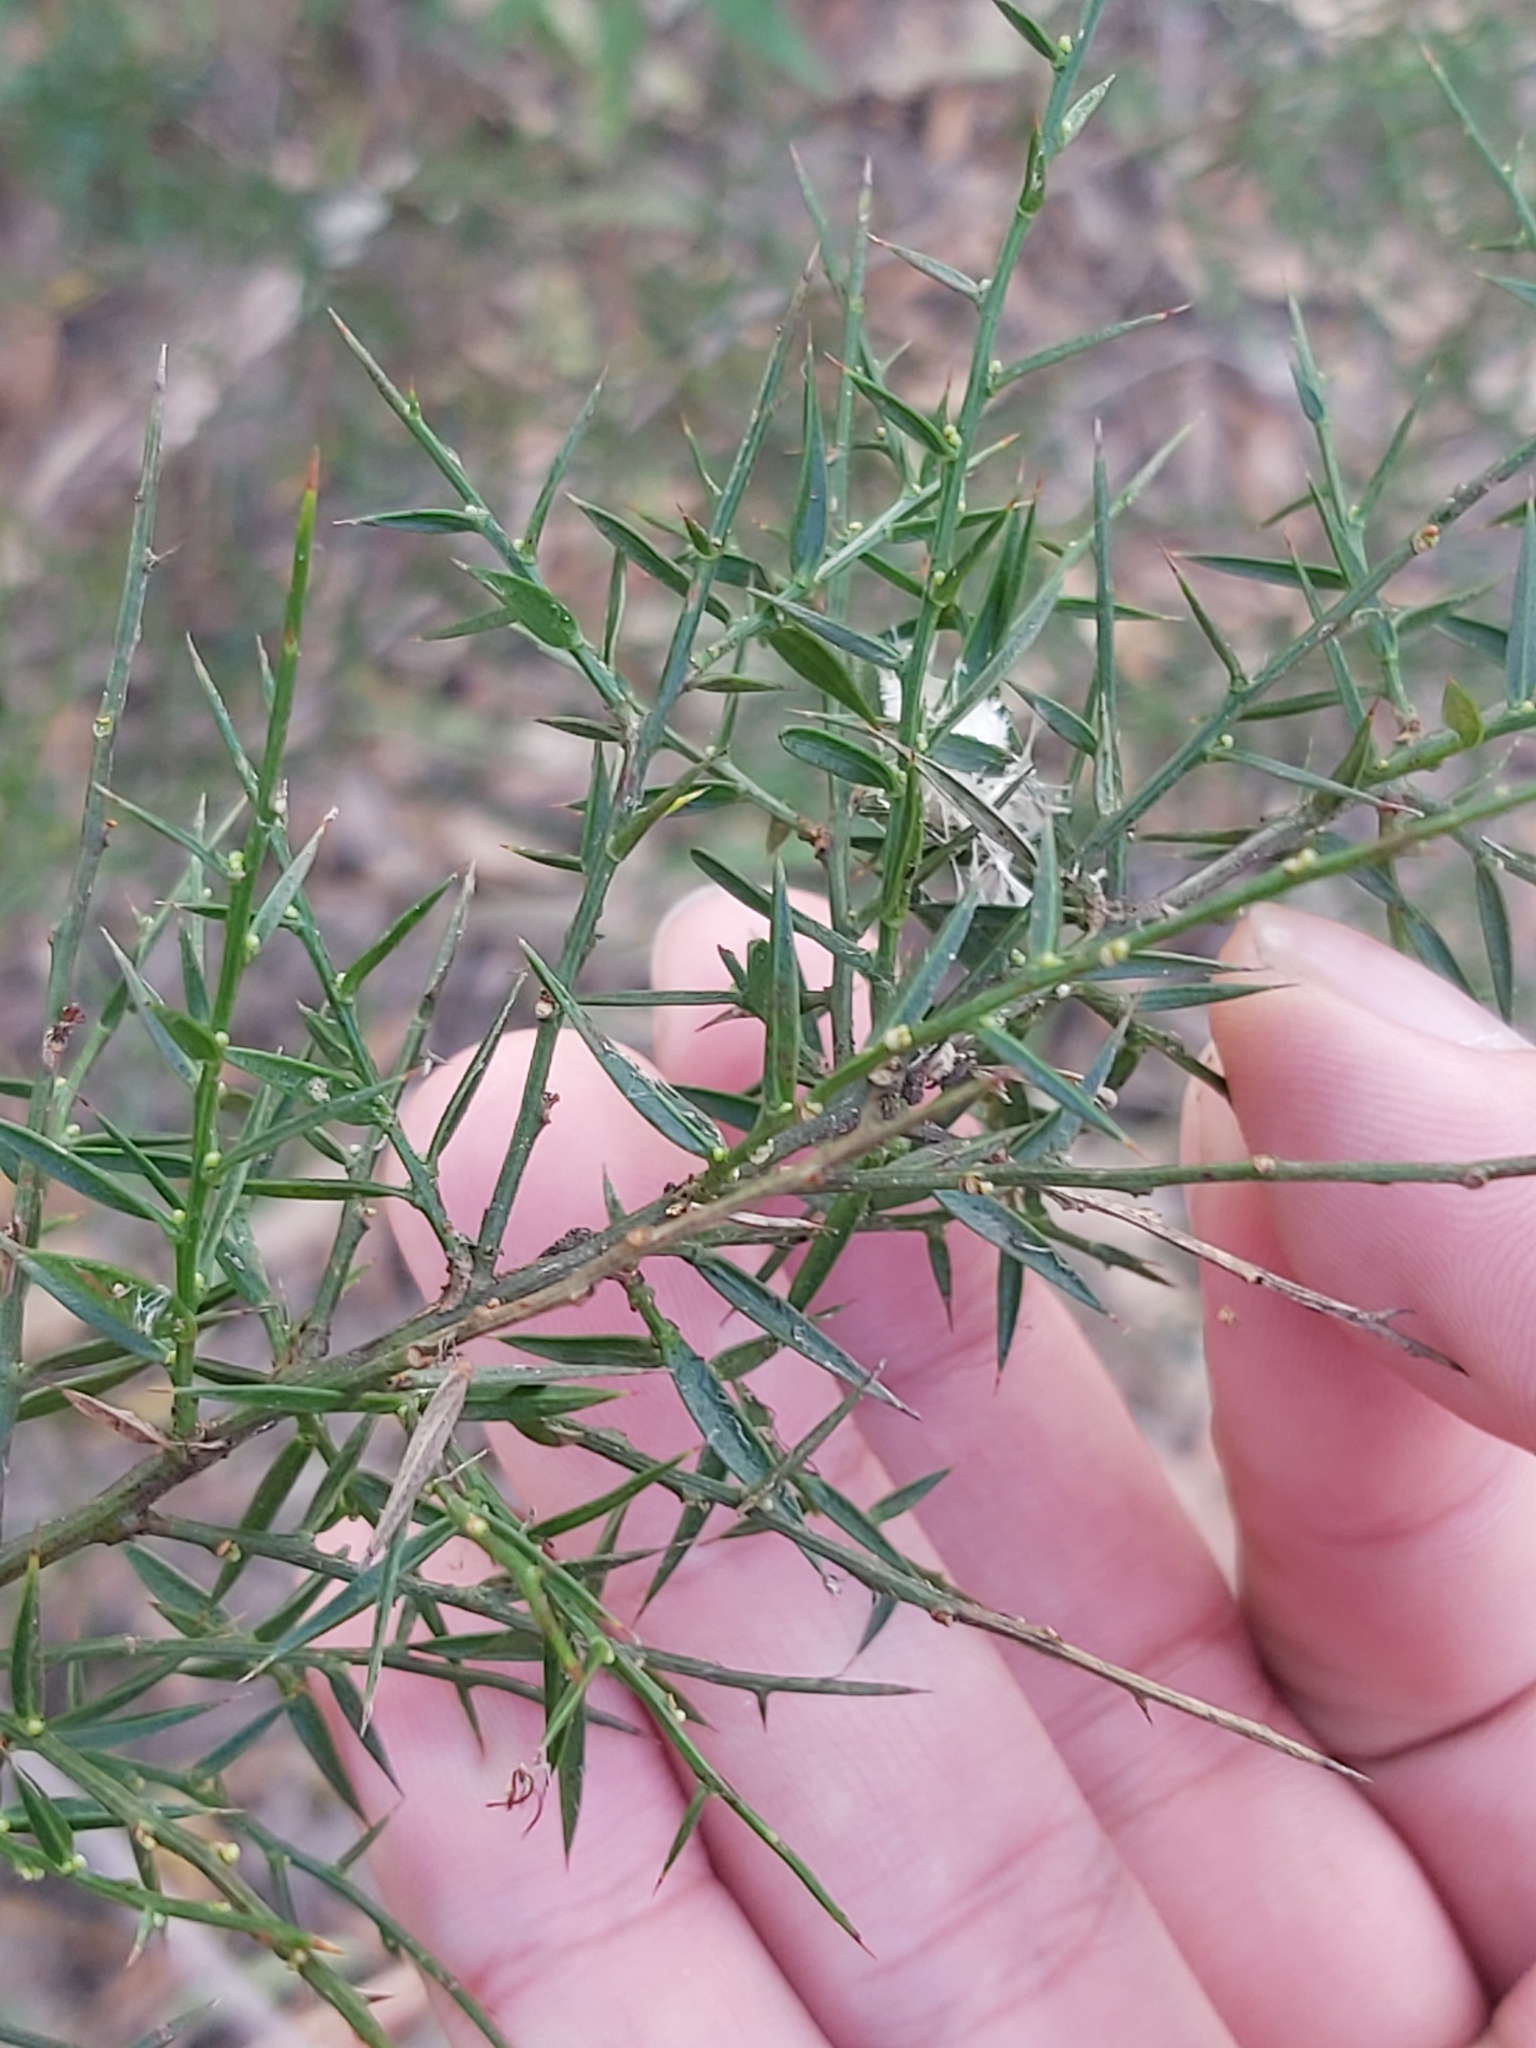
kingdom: Plantae
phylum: Tracheophyta
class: Magnoliopsida
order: Fabales
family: Fabaceae
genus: Daviesia
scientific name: Daviesia ulicifolia
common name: Gorse bitter-pea
